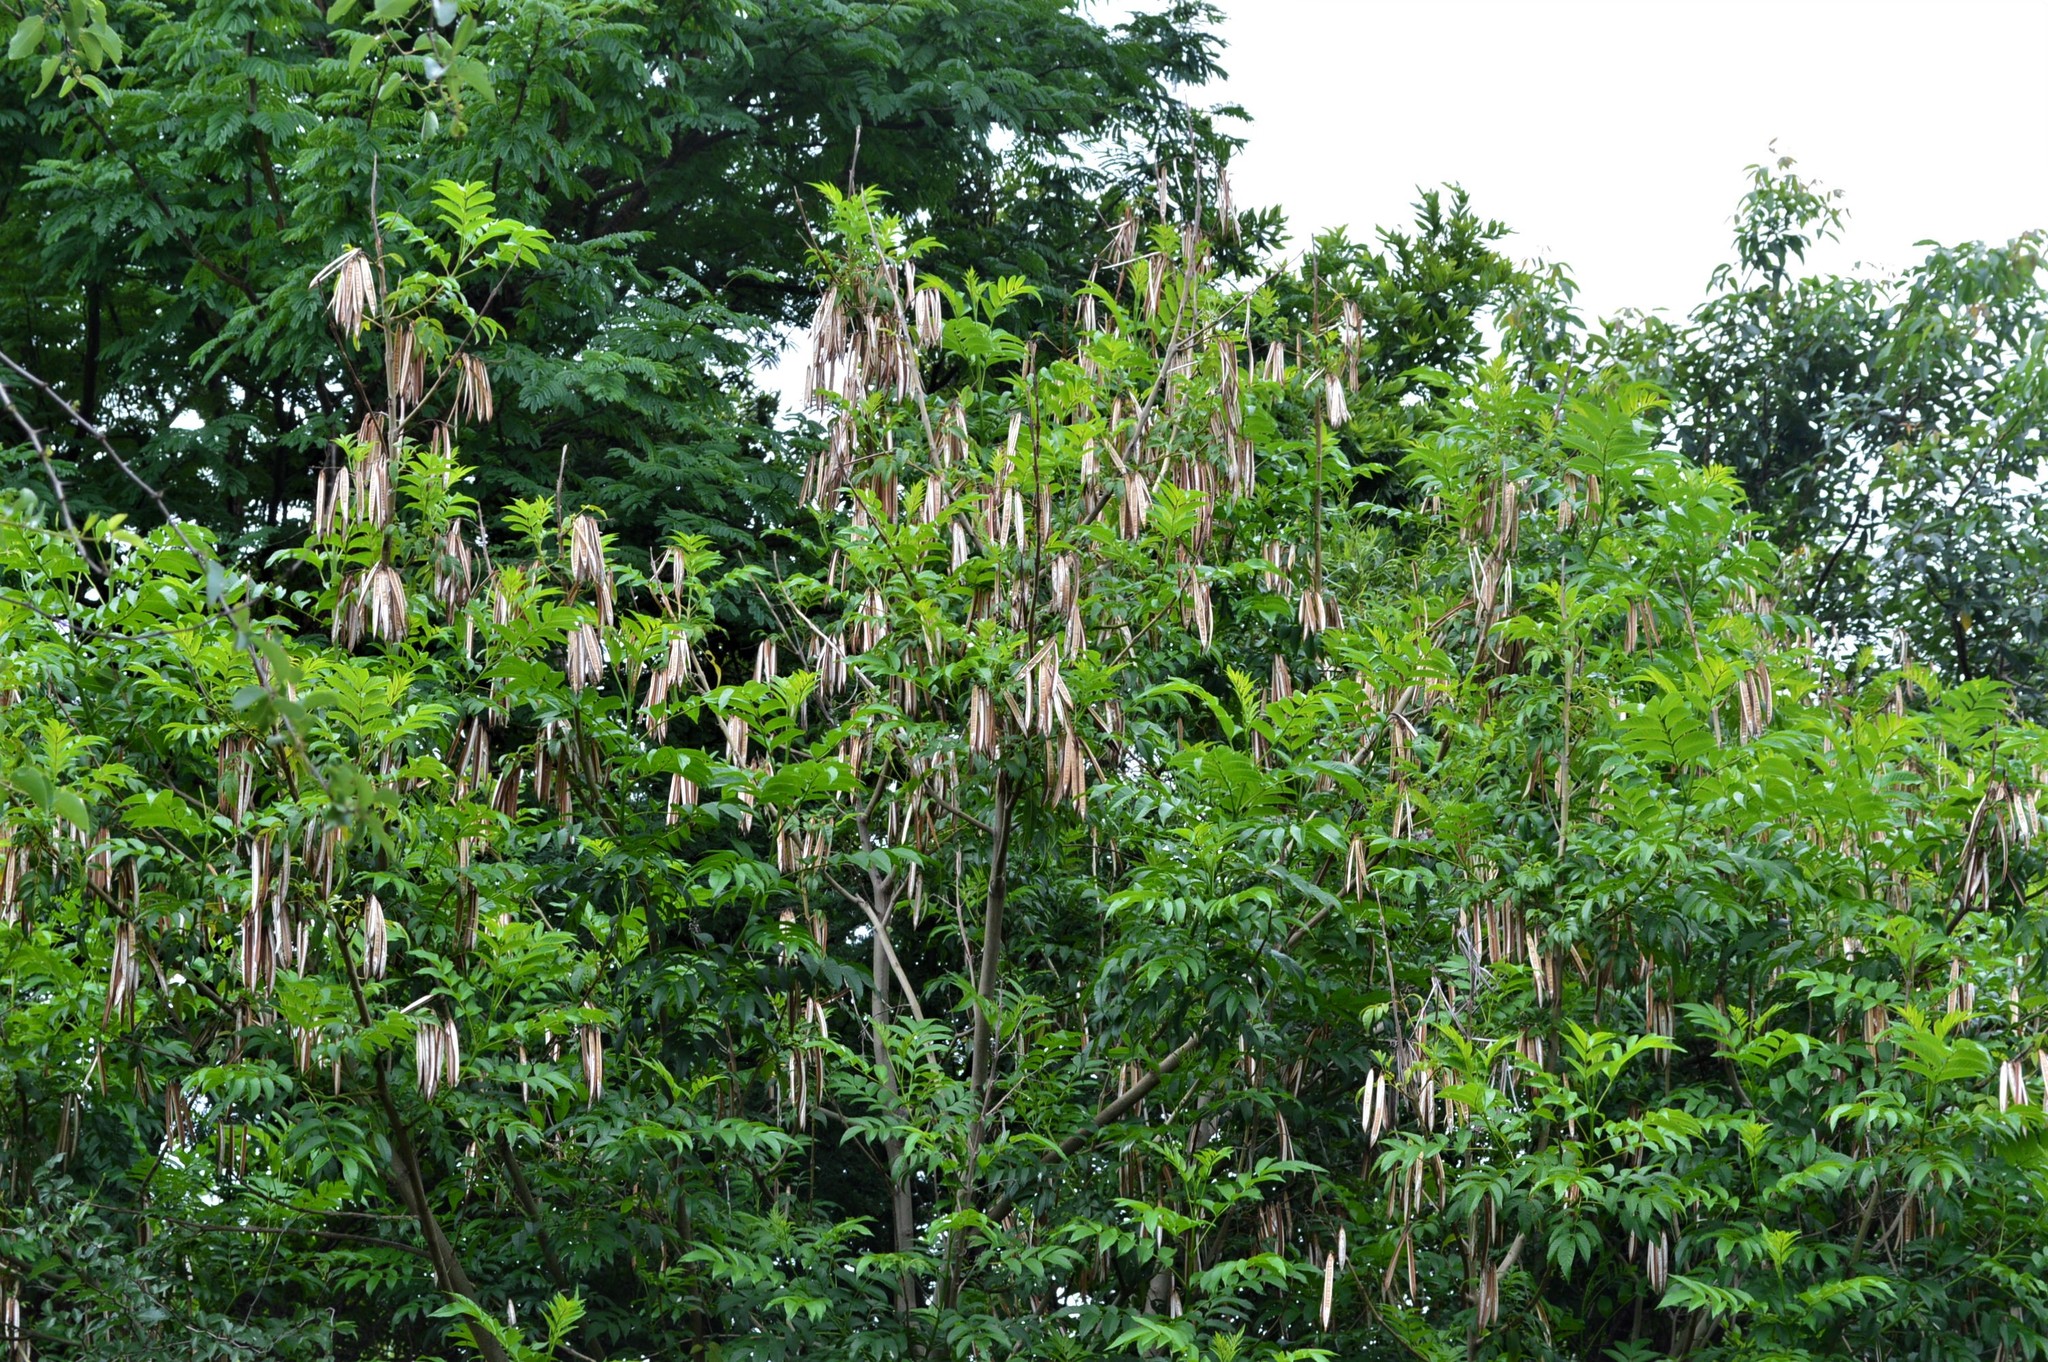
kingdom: Plantae
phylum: Tracheophyta
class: Magnoliopsida
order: Lamiales
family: Bignoniaceae
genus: Tecoma
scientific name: Tecoma stans
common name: Yellow trumpetbush
